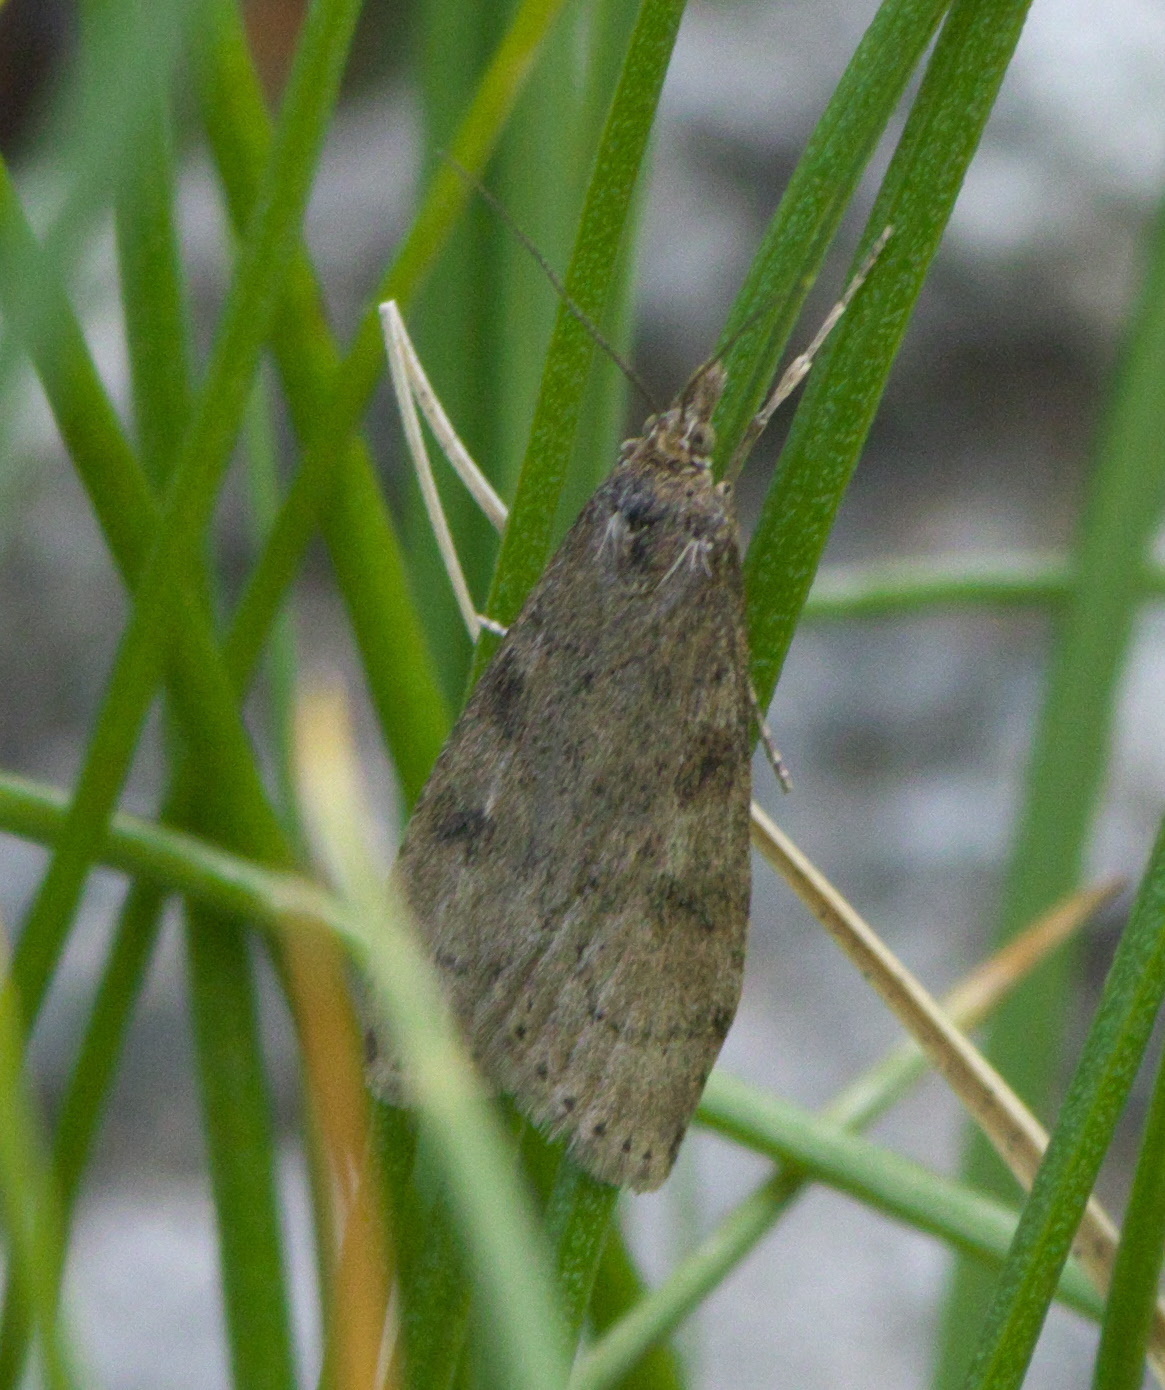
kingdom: Animalia
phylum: Arthropoda
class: Insecta
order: Lepidoptera
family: Crambidae
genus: Nomophila
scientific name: Nomophila nearctica
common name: American rush veneer
